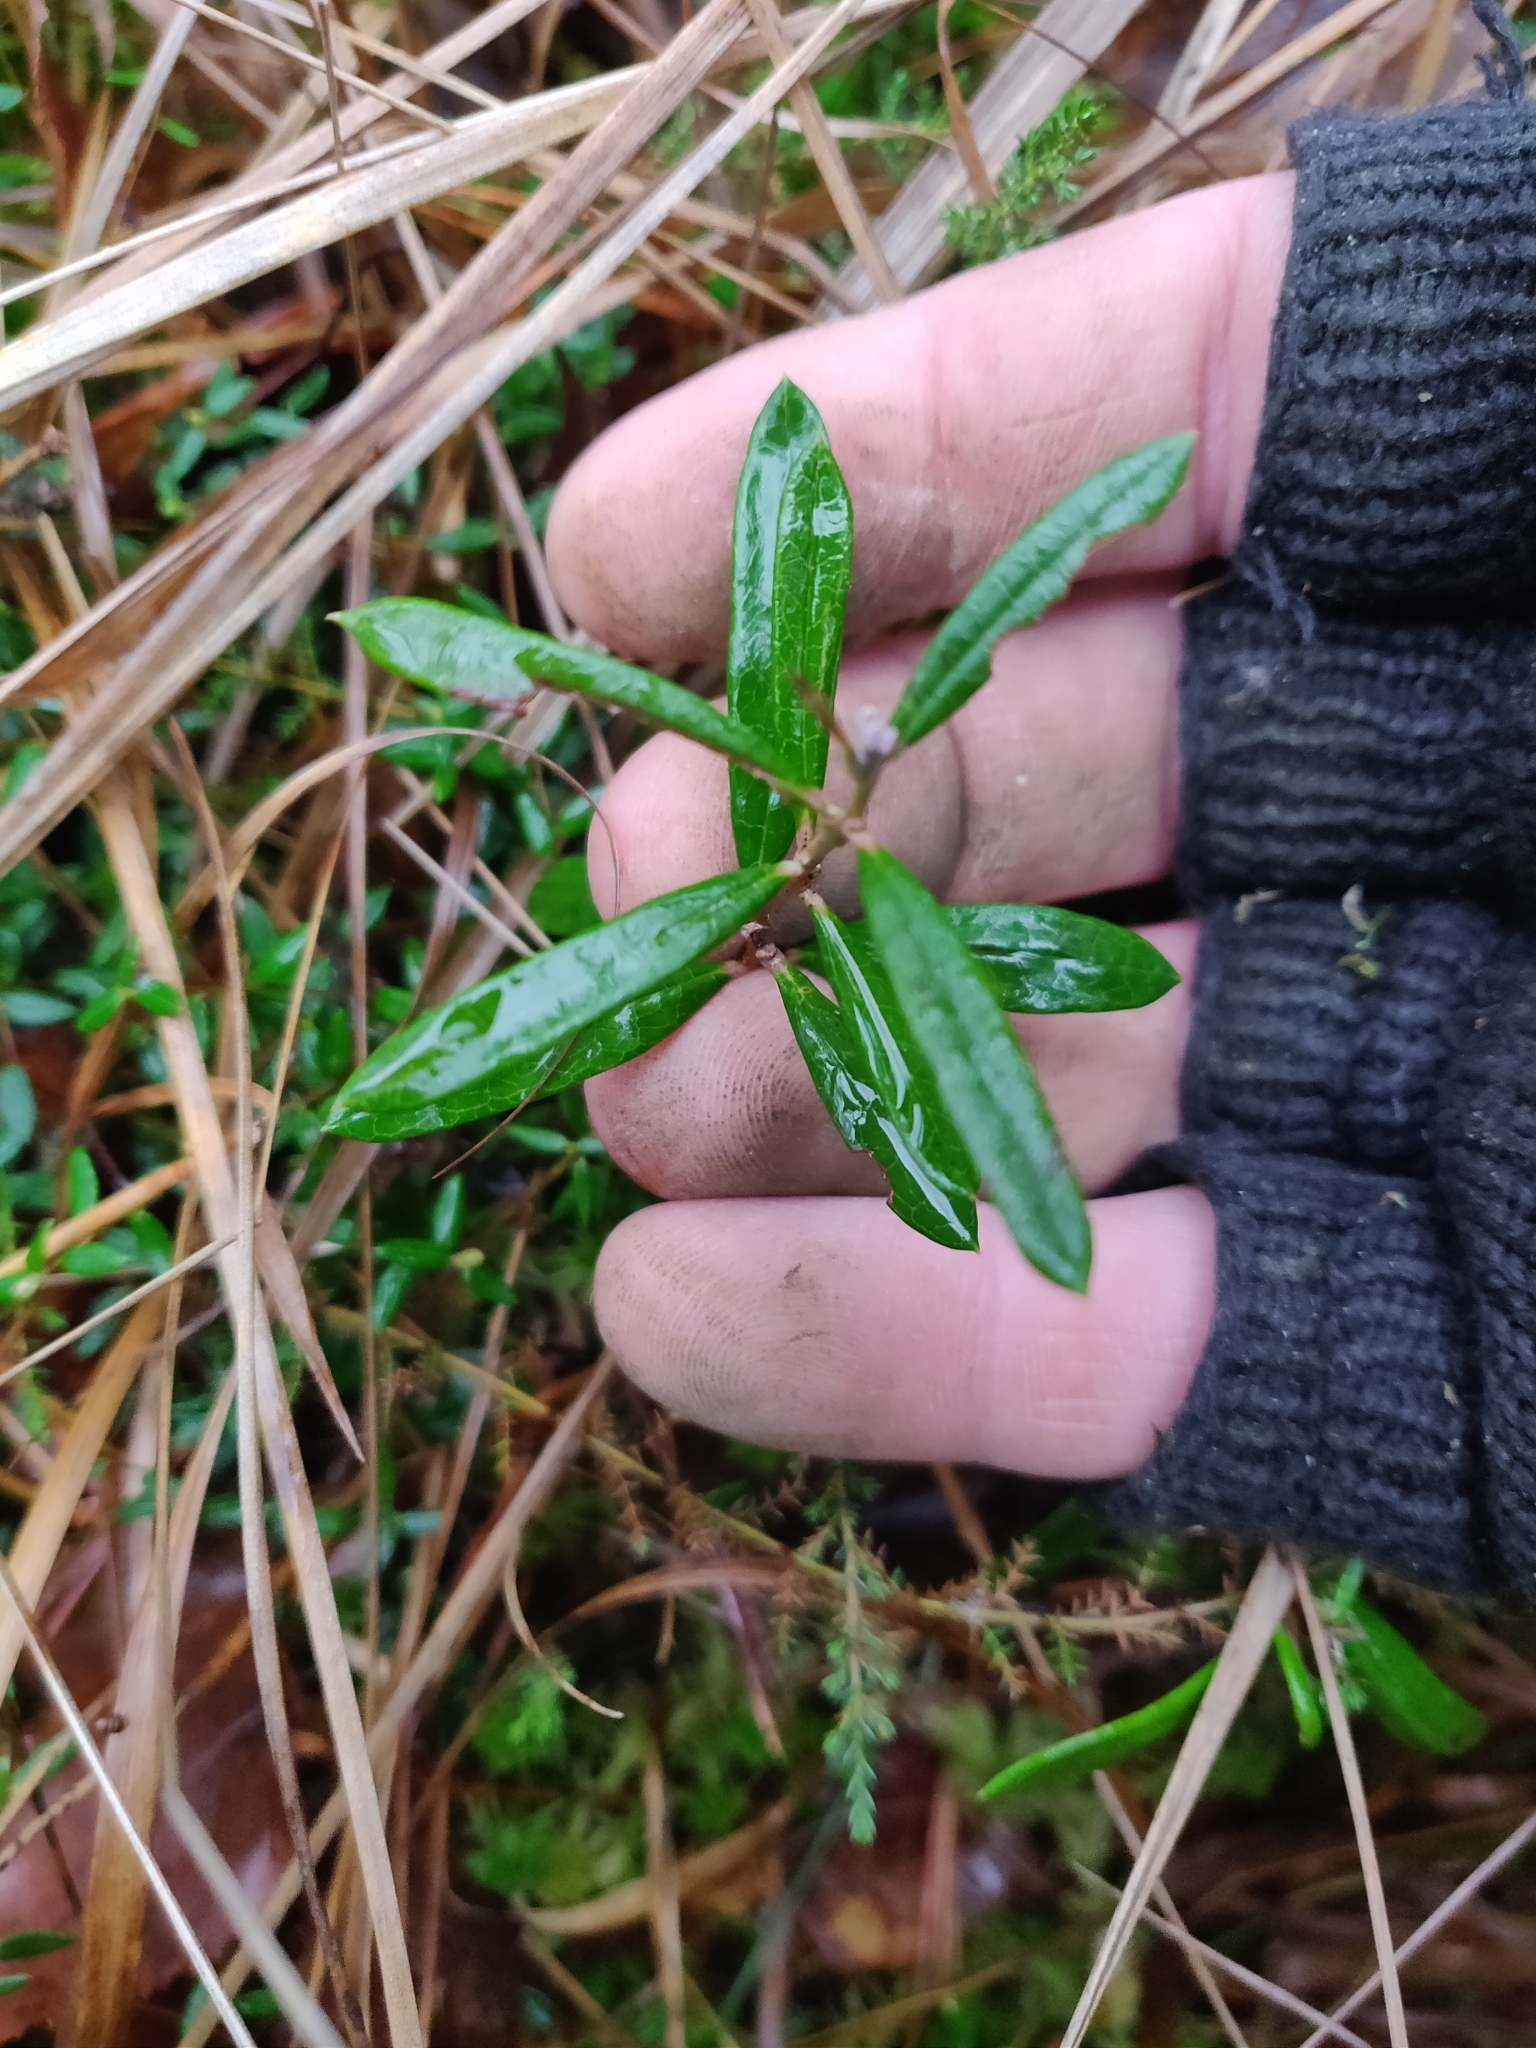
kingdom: Plantae
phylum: Tracheophyta
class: Magnoliopsida
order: Ericales
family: Ericaceae
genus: Andromeda
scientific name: Andromeda polifolia
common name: Bog-rosemary
